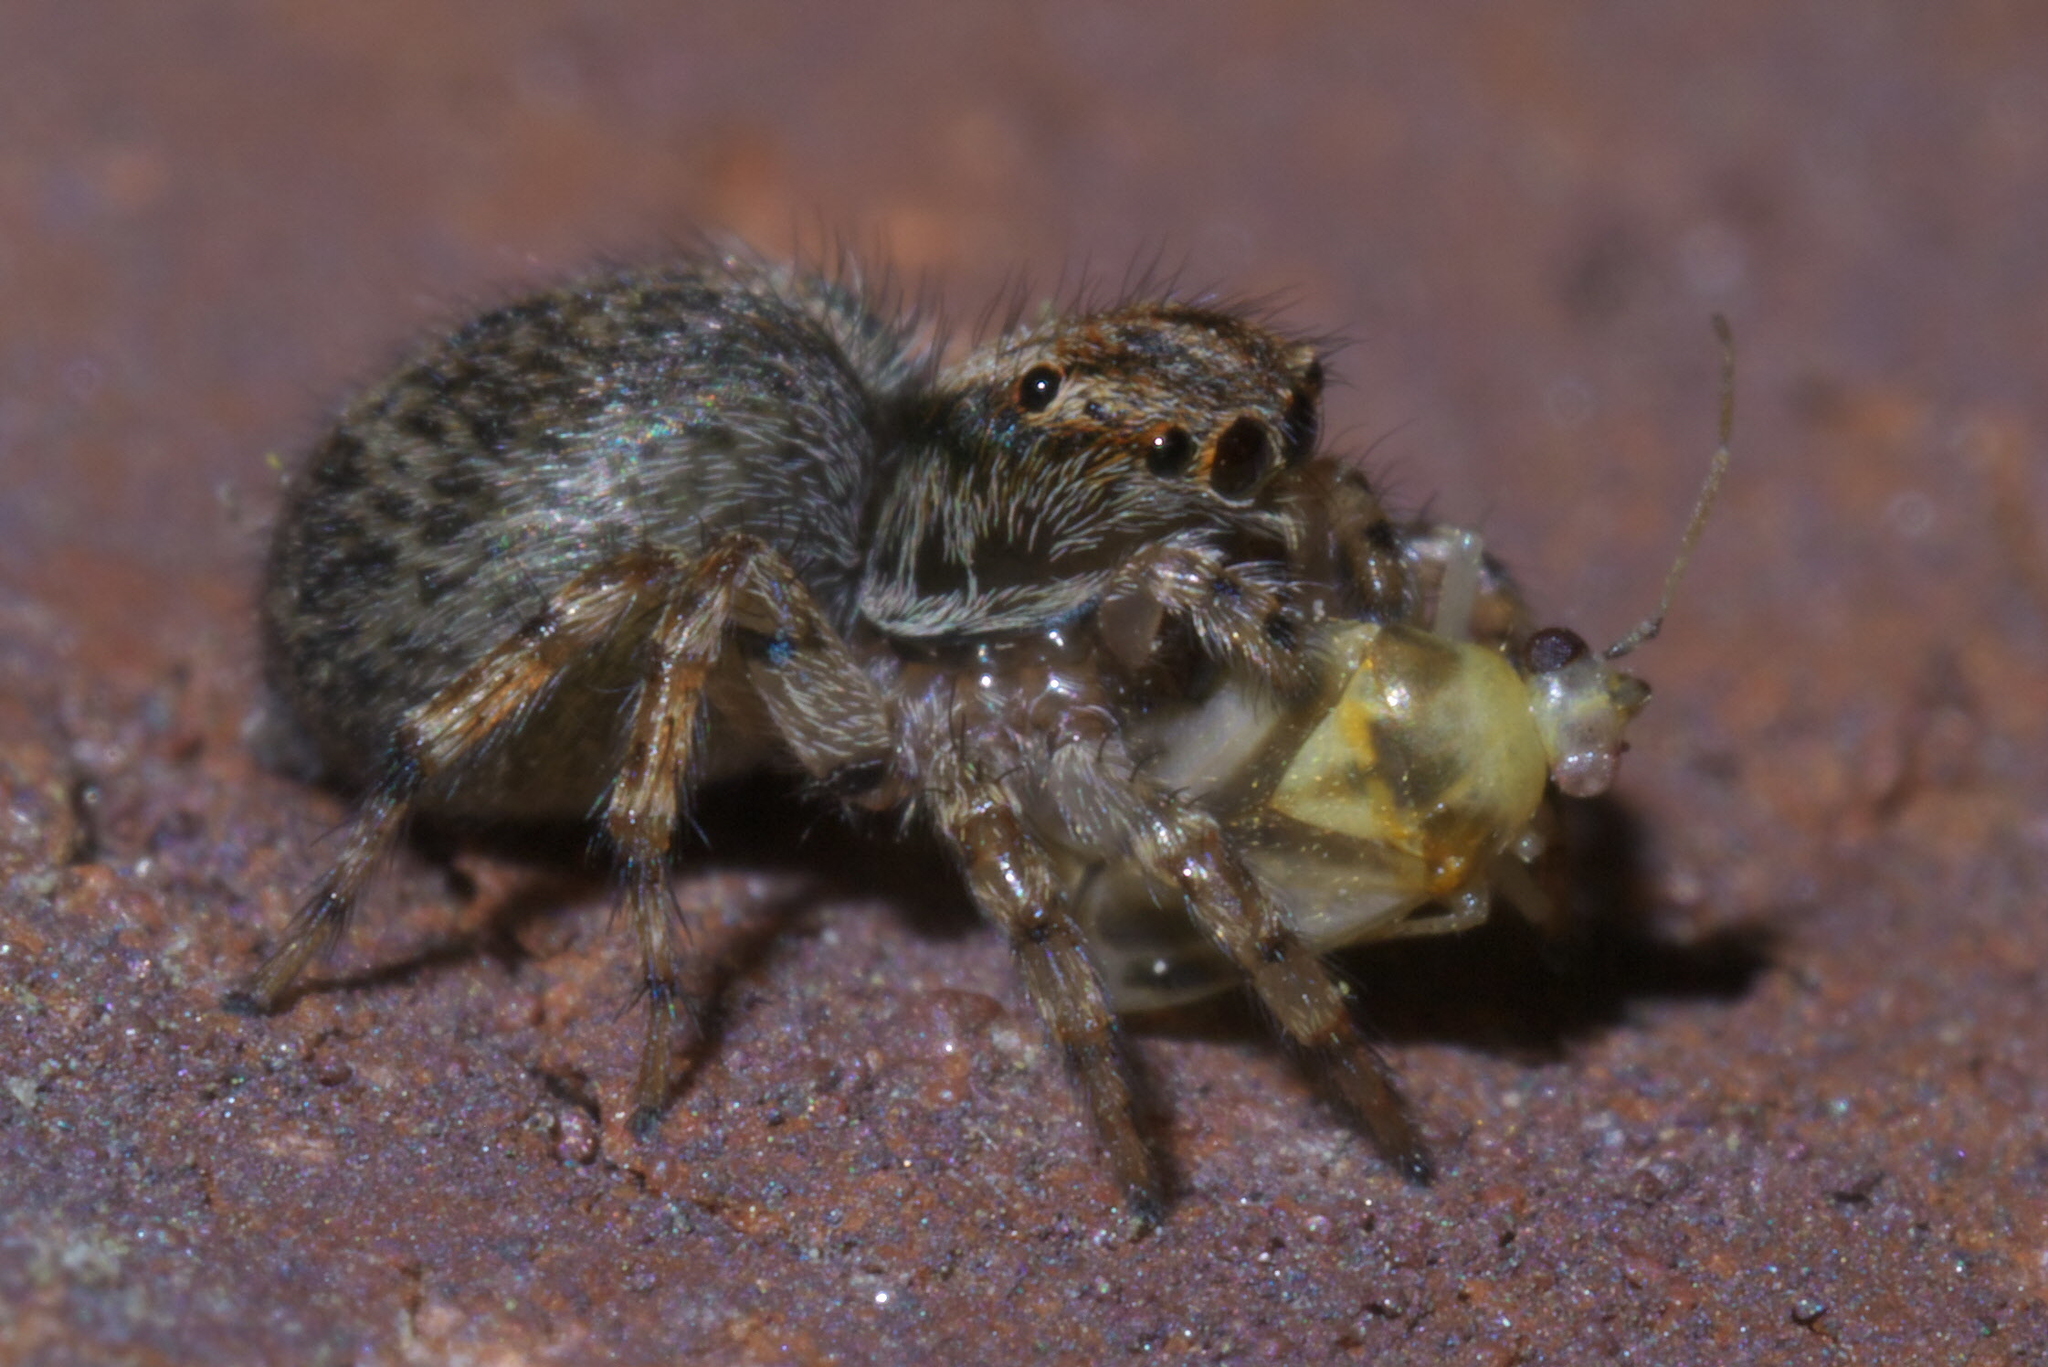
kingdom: Animalia
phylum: Arthropoda
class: Arachnida
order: Araneae
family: Salticidae
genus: Naphrys
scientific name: Naphrys pulex
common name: Flea jumping spider
